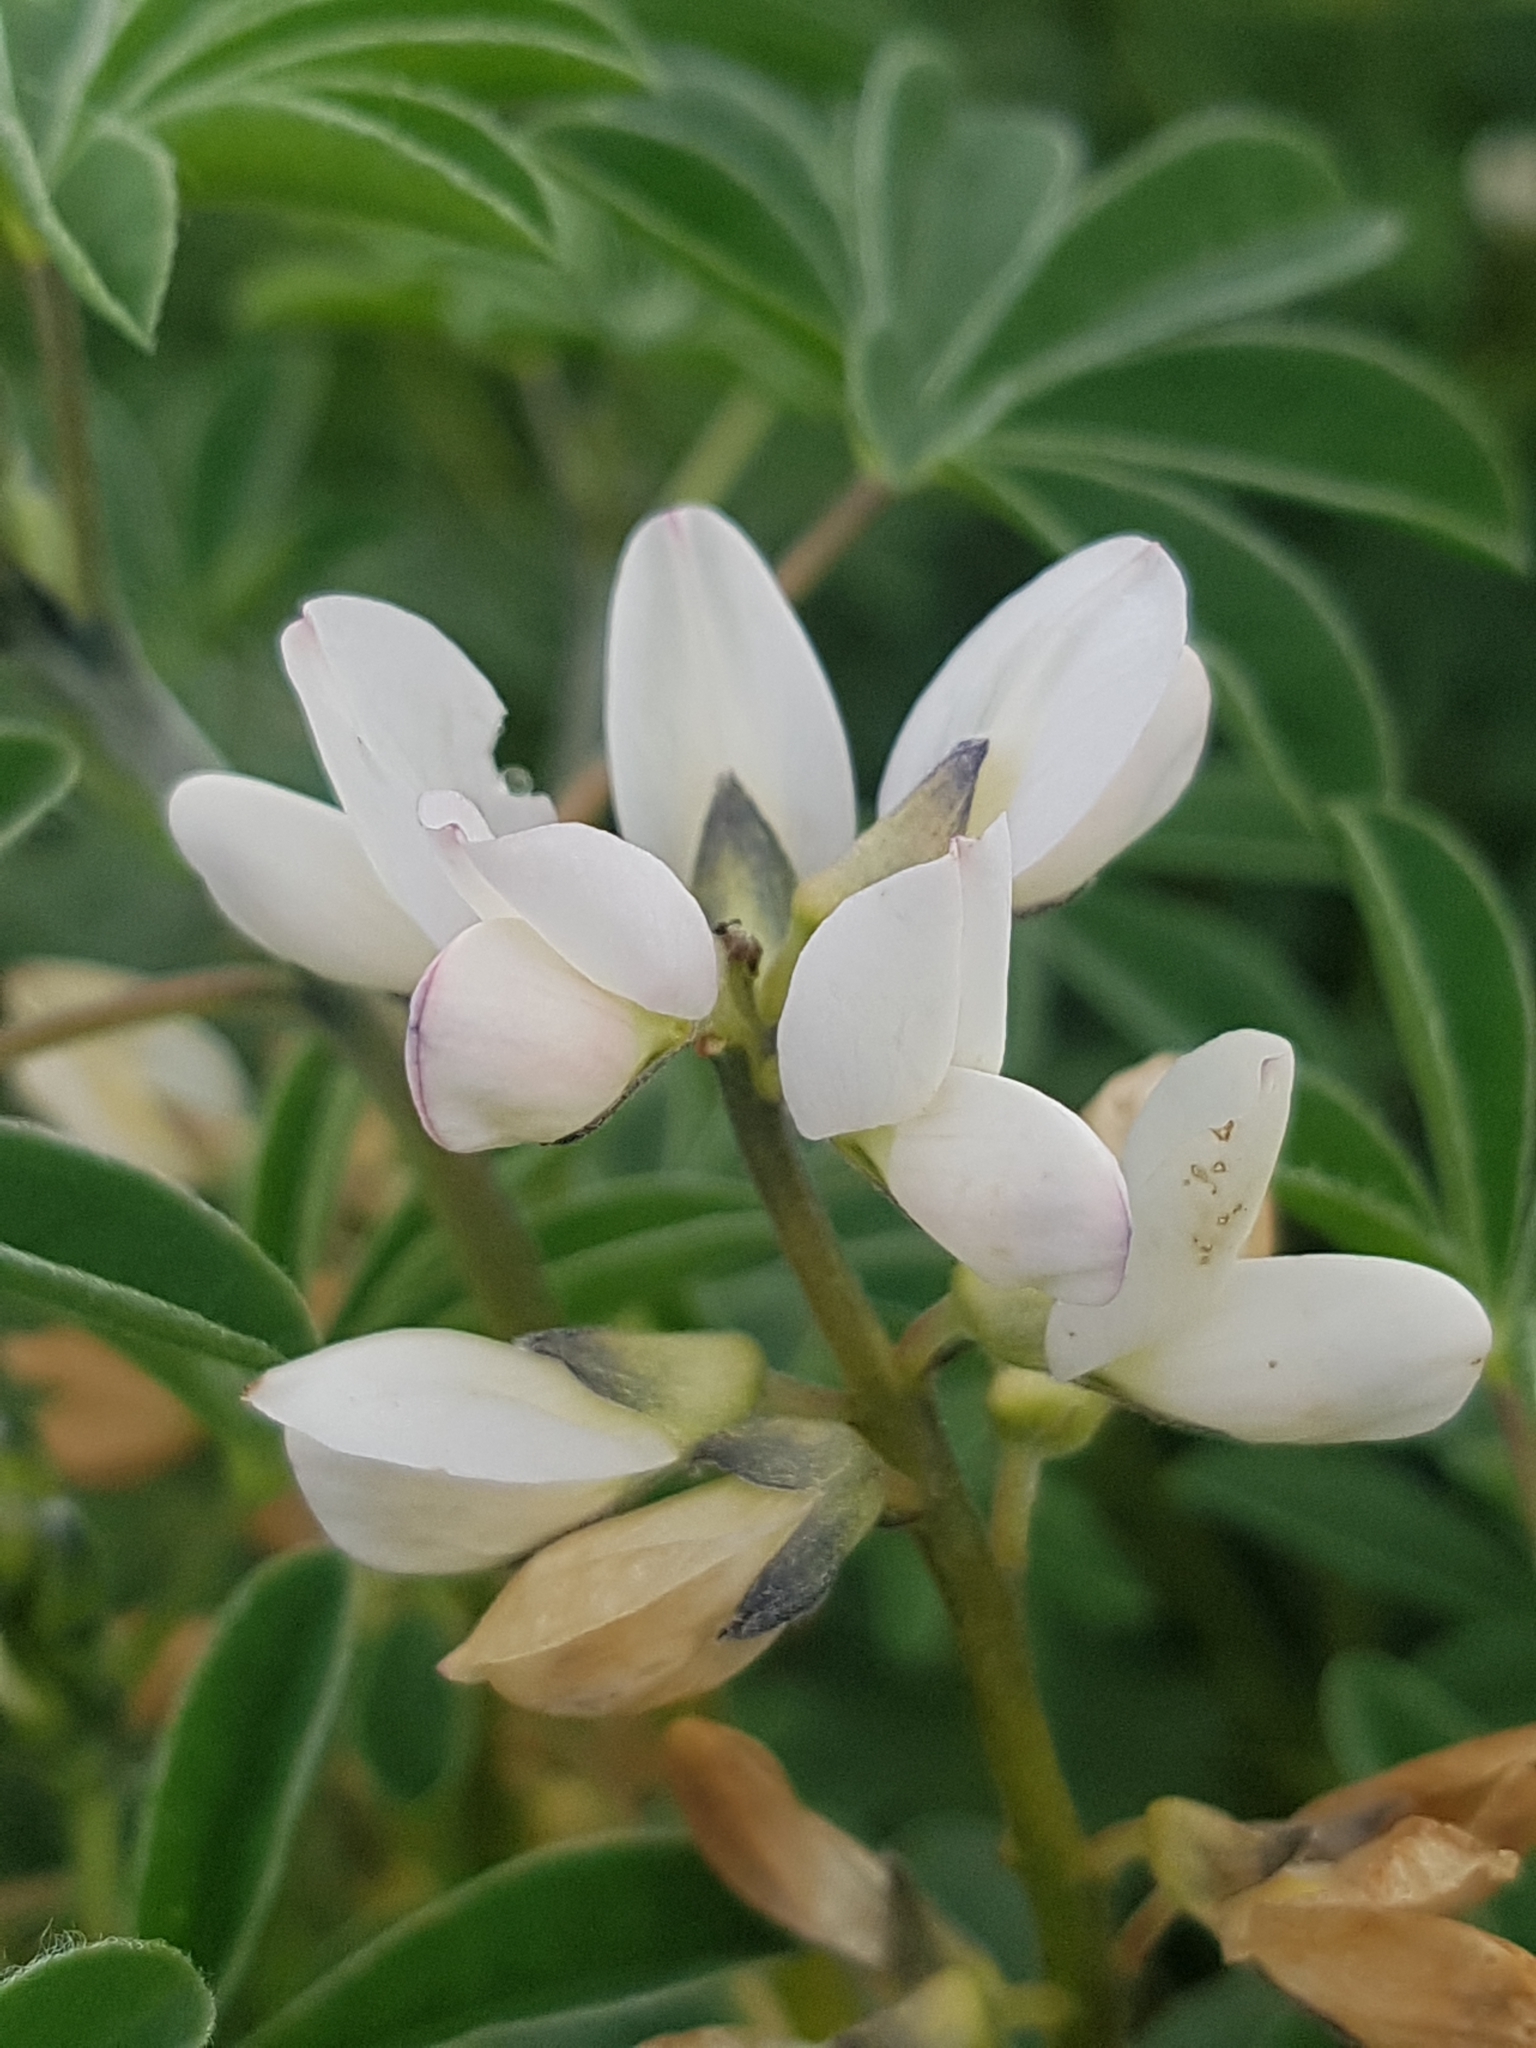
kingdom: Plantae
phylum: Tracheophyta
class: Magnoliopsida
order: Fabales
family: Fabaceae
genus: Lupinus
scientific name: Lupinus albus
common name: White lupin
